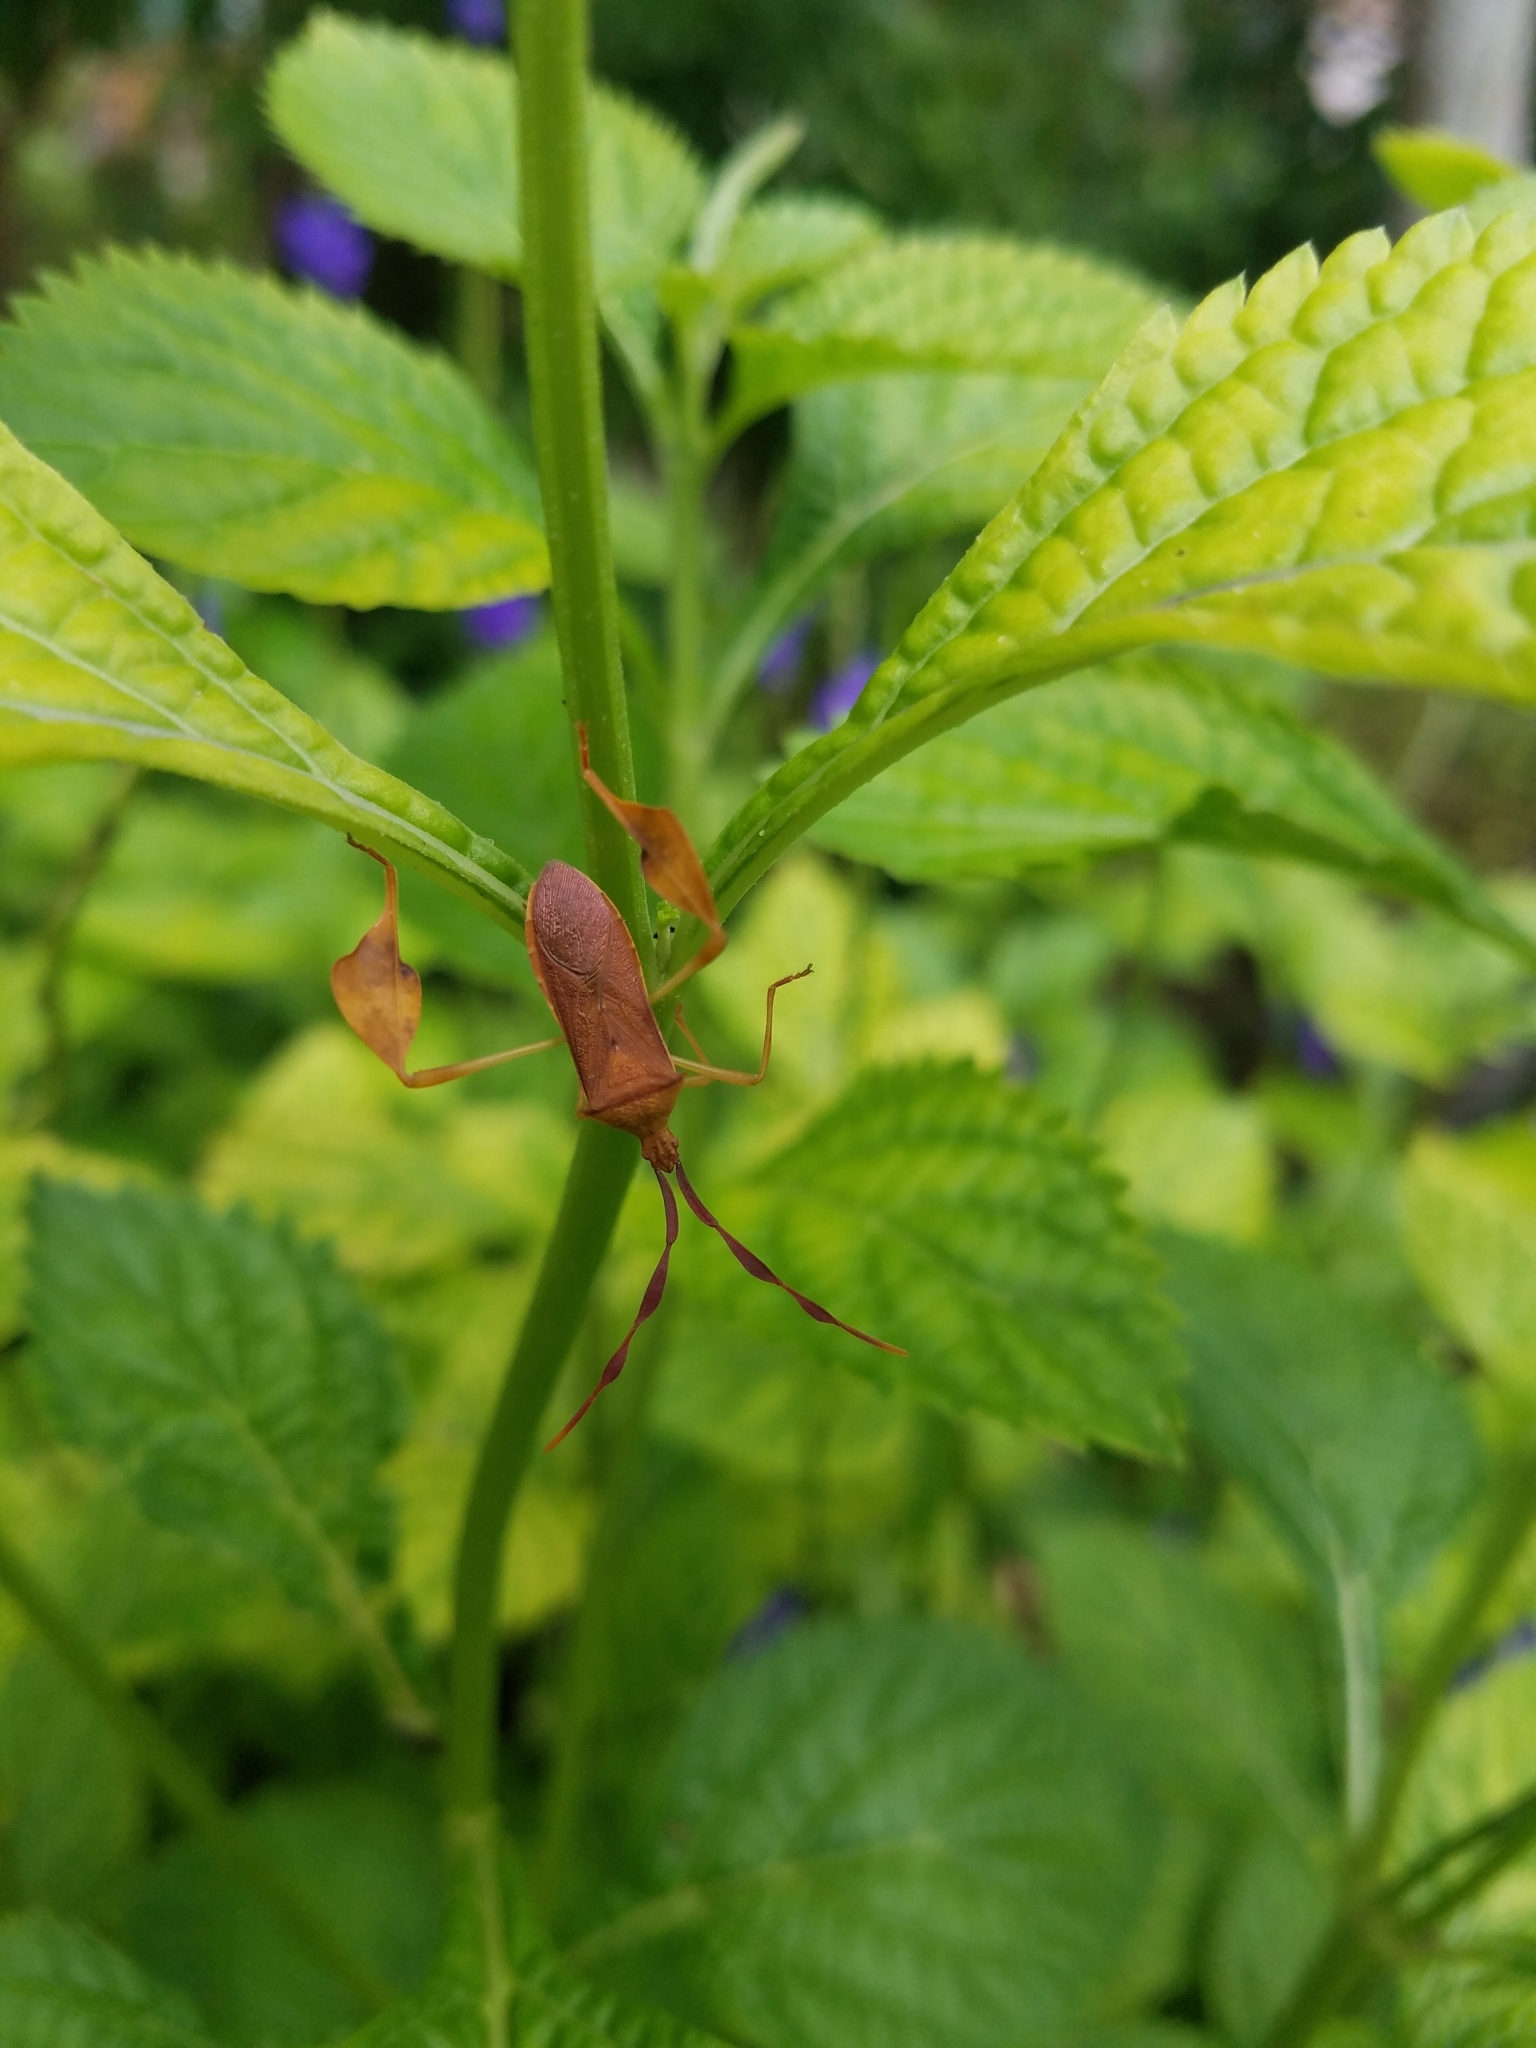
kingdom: Animalia
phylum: Arthropoda
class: Insecta
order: Hemiptera
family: Coreidae
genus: Chondrocera
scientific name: Chondrocera laticornis
